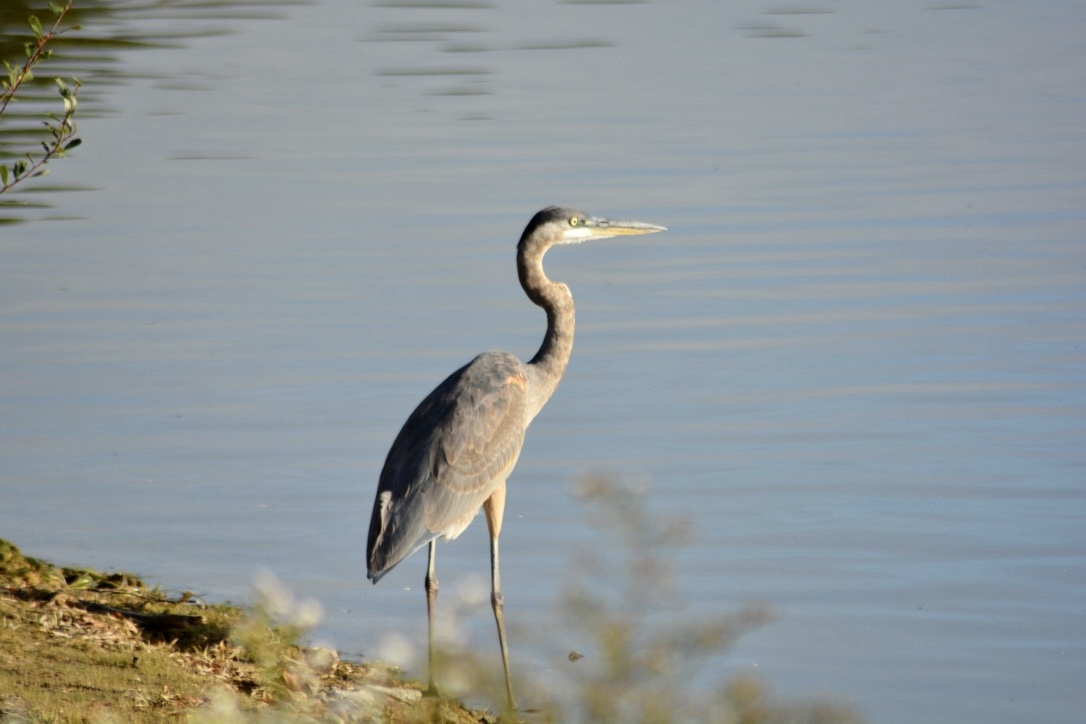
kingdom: Animalia
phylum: Chordata
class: Aves
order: Pelecaniformes
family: Ardeidae
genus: Ardea
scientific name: Ardea herodias
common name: Great blue heron
